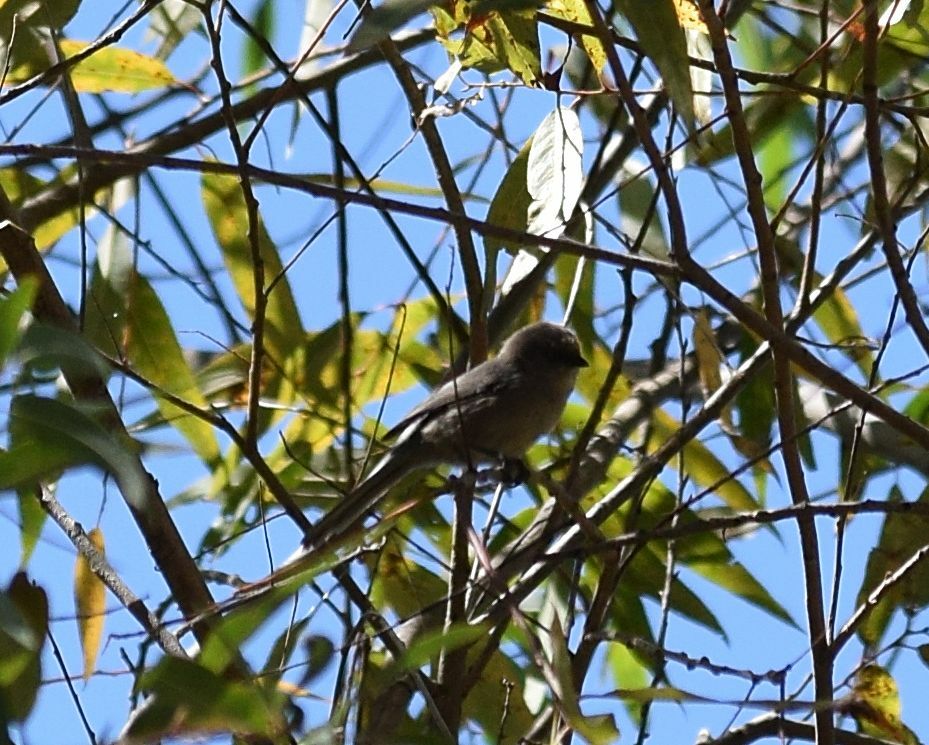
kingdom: Animalia
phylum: Chordata
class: Aves
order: Passeriformes
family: Aegithalidae
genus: Psaltriparus
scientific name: Psaltriparus minimus
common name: American bushtit
